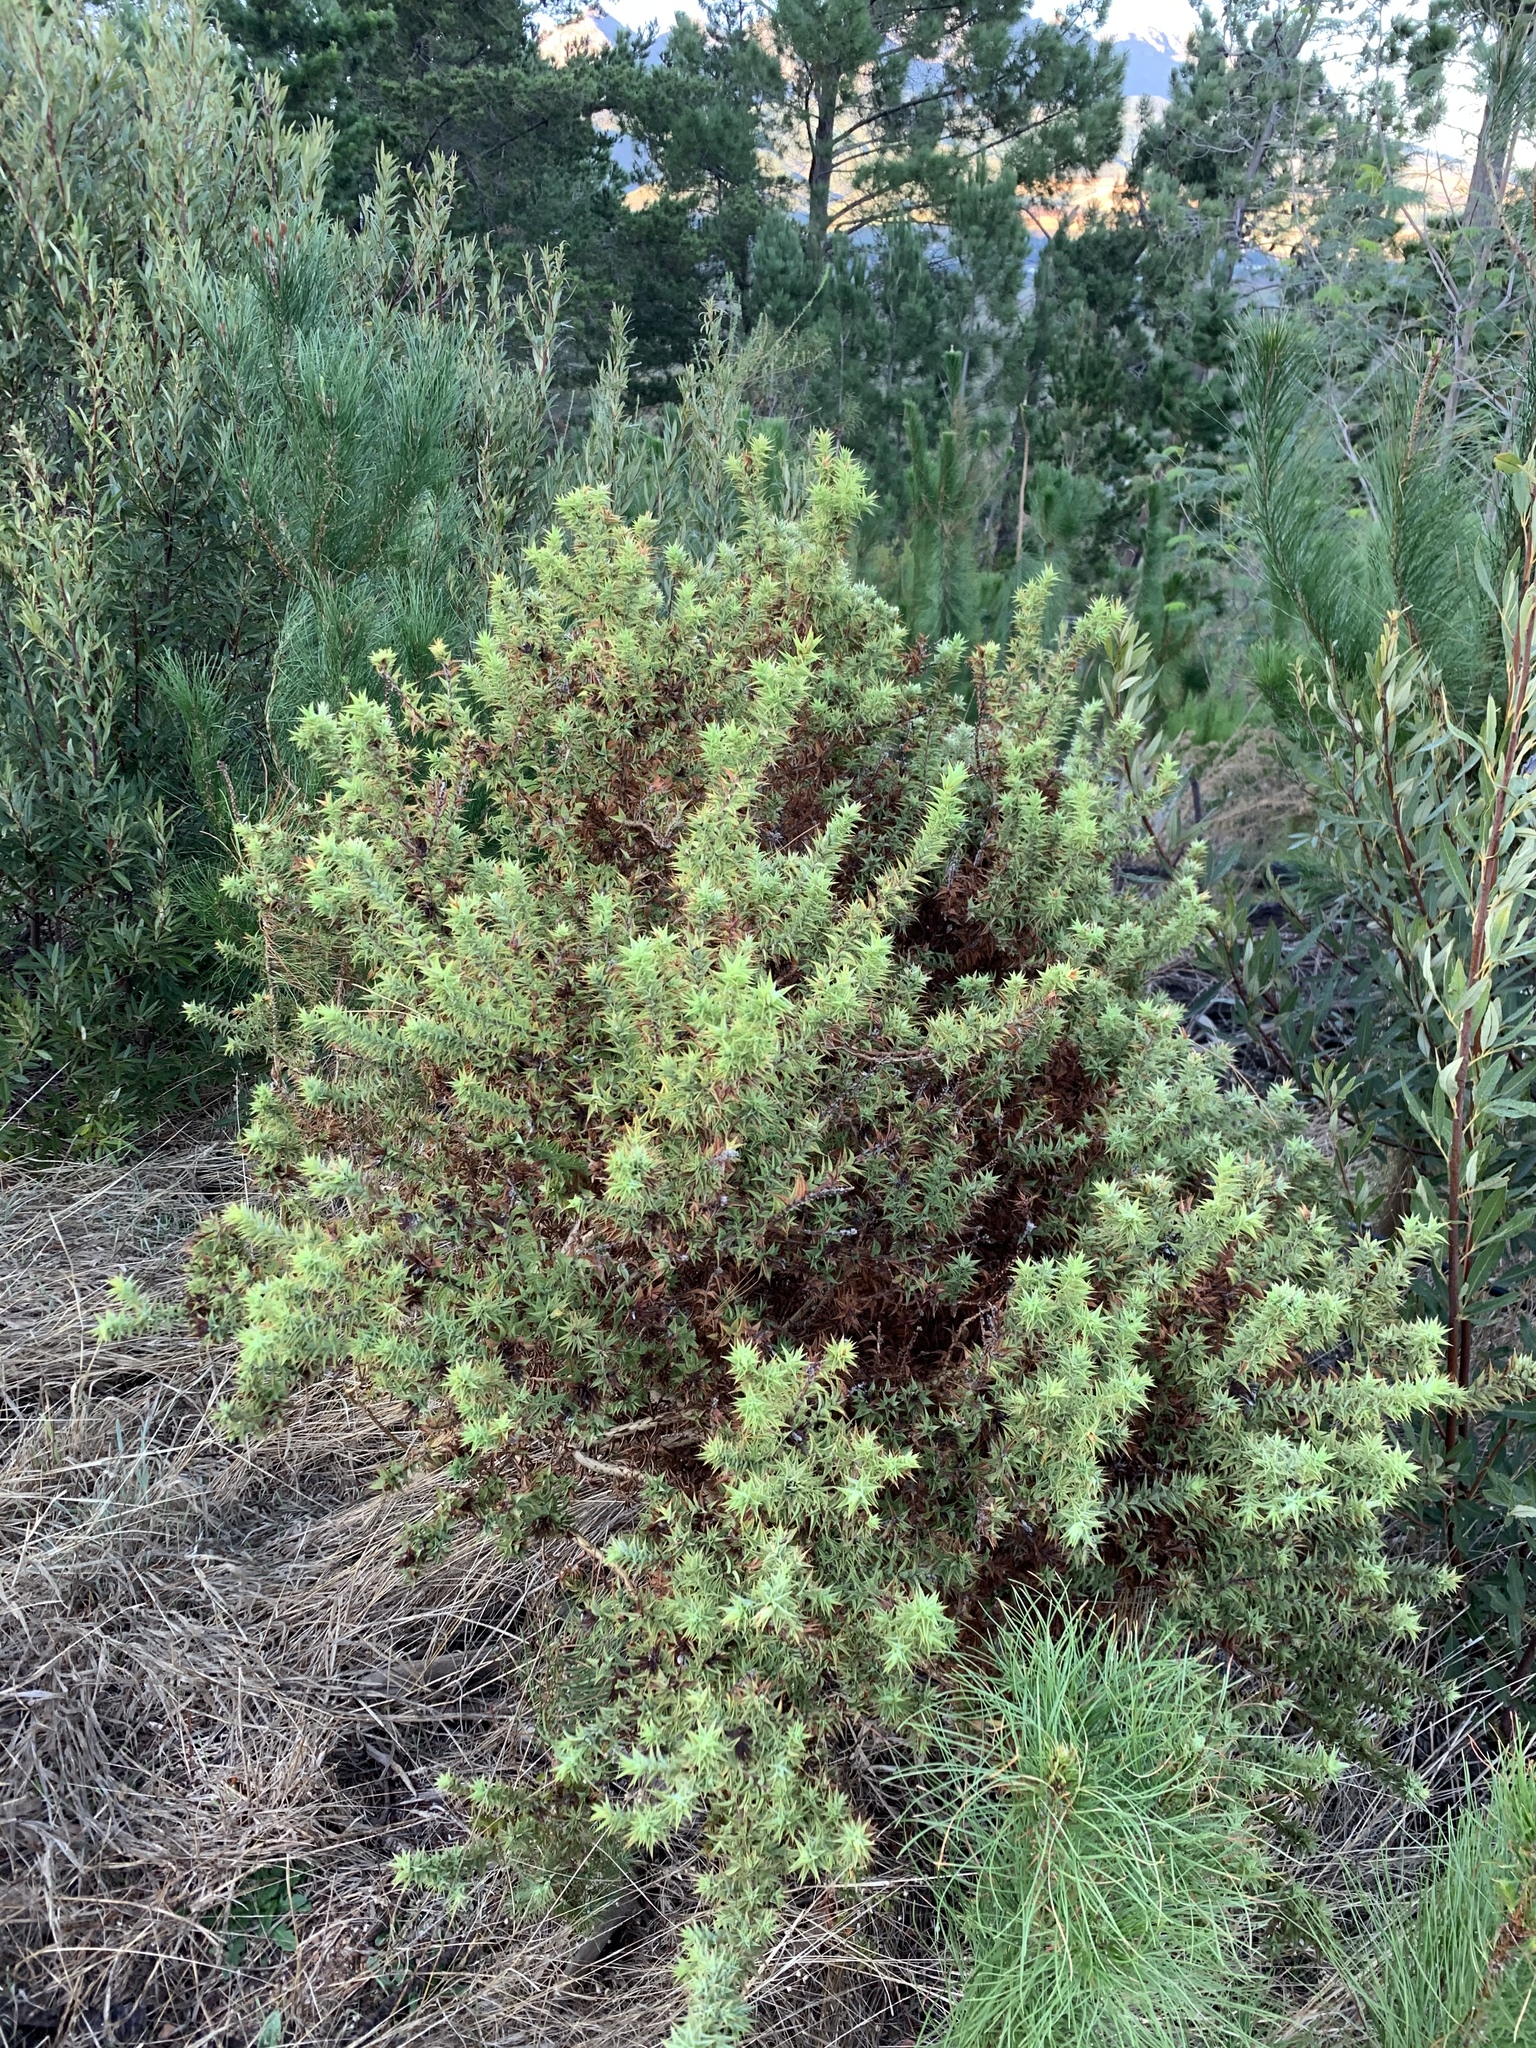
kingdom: Plantae
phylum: Tracheophyta
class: Magnoliopsida
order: Fabales
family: Fabaceae
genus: Aspalathus
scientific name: Aspalathus cordata
